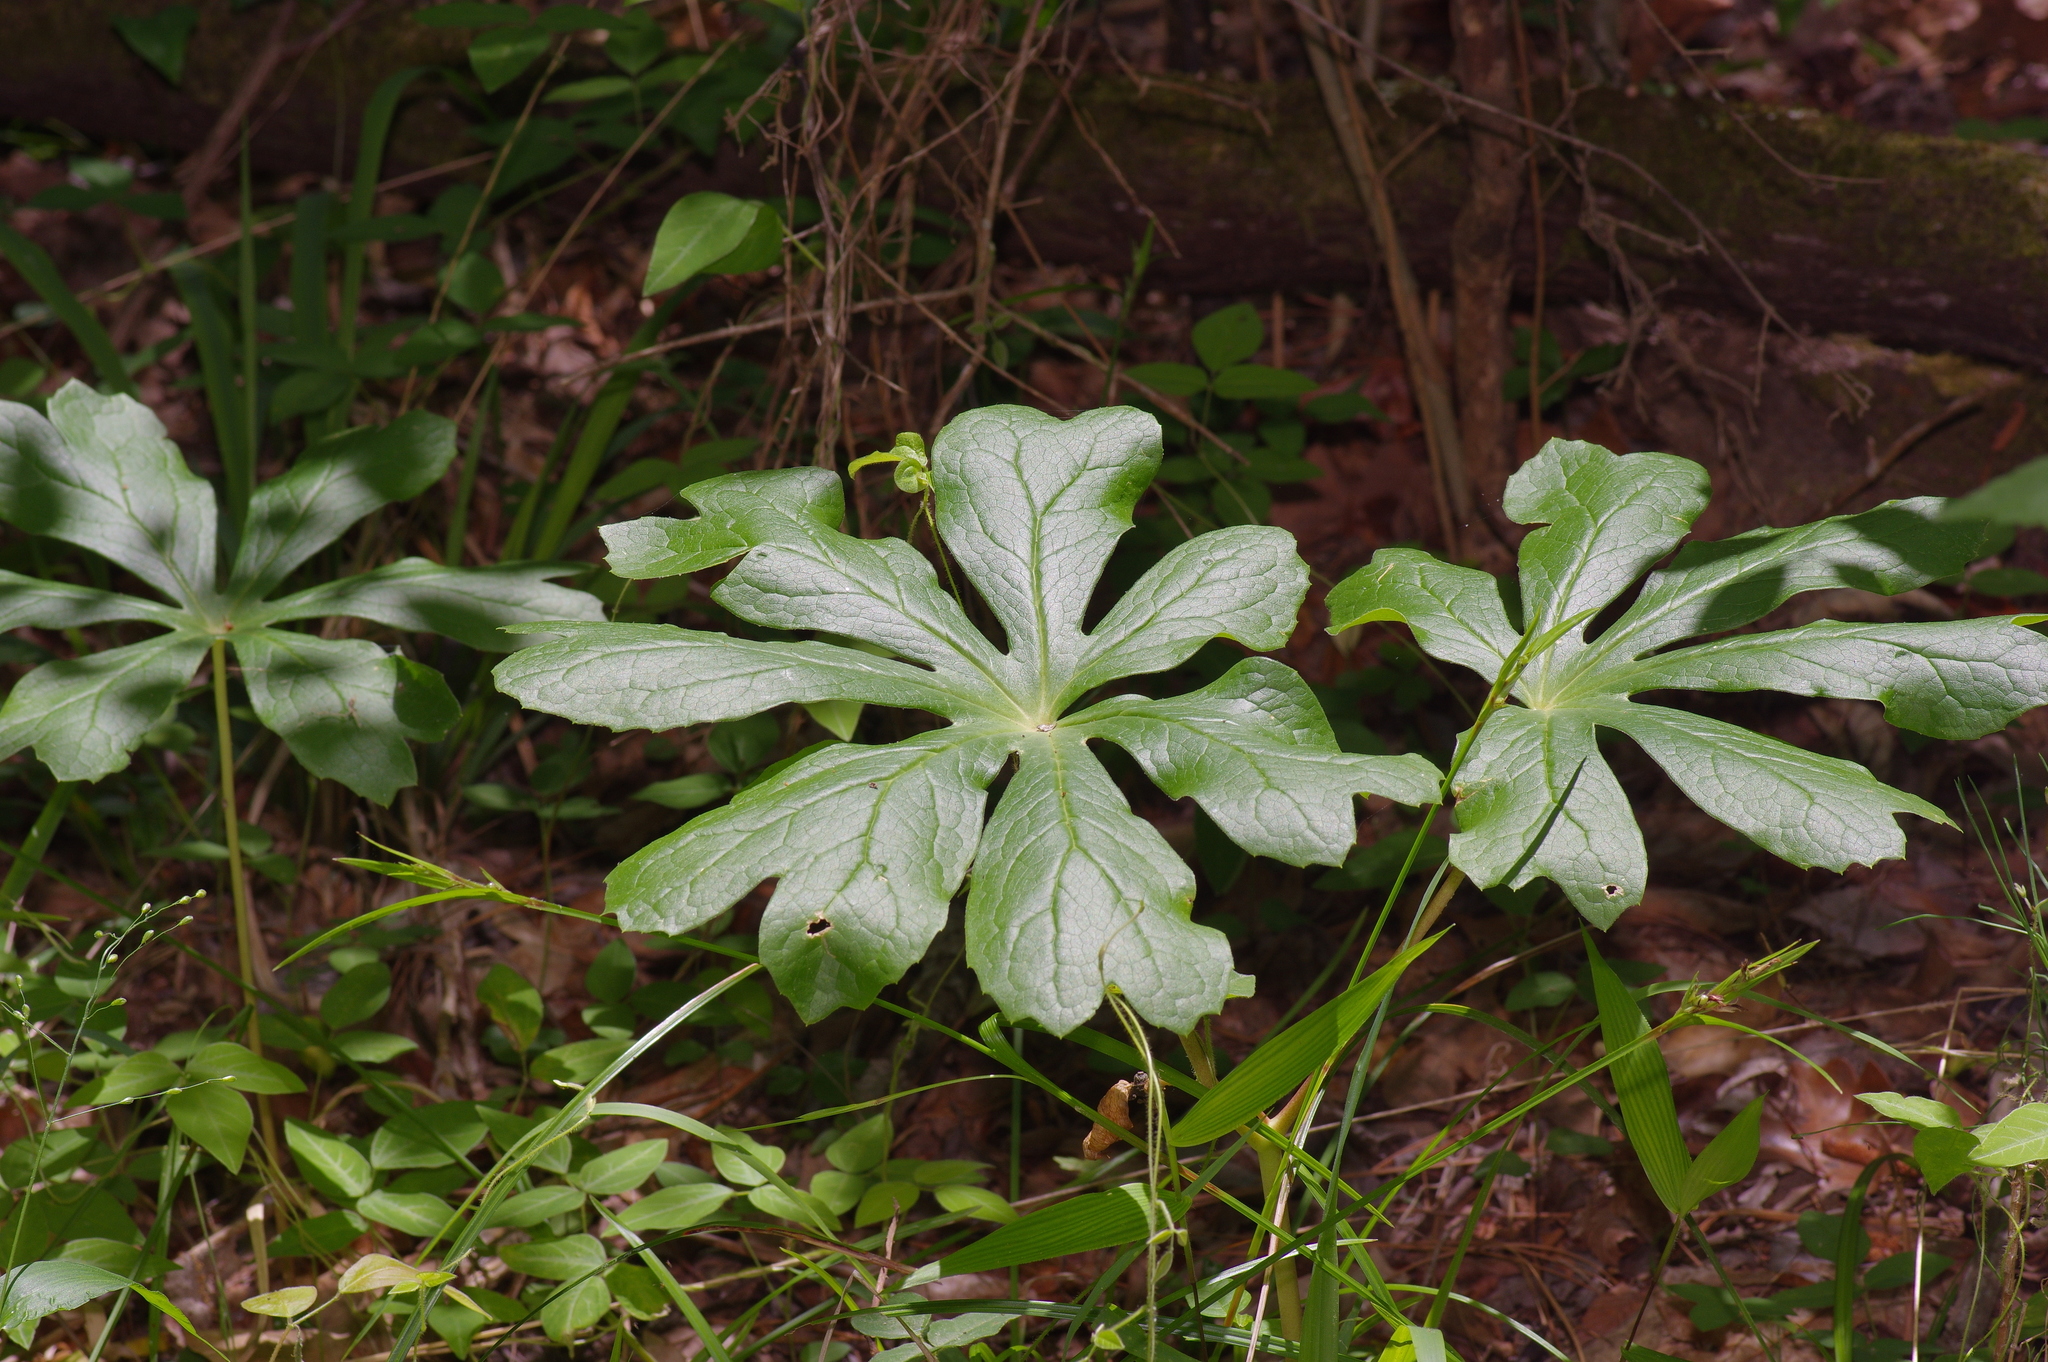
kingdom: Plantae
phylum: Tracheophyta
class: Magnoliopsida
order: Ranunculales
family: Berberidaceae
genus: Podophyllum
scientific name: Podophyllum peltatum
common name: Wild mandrake
